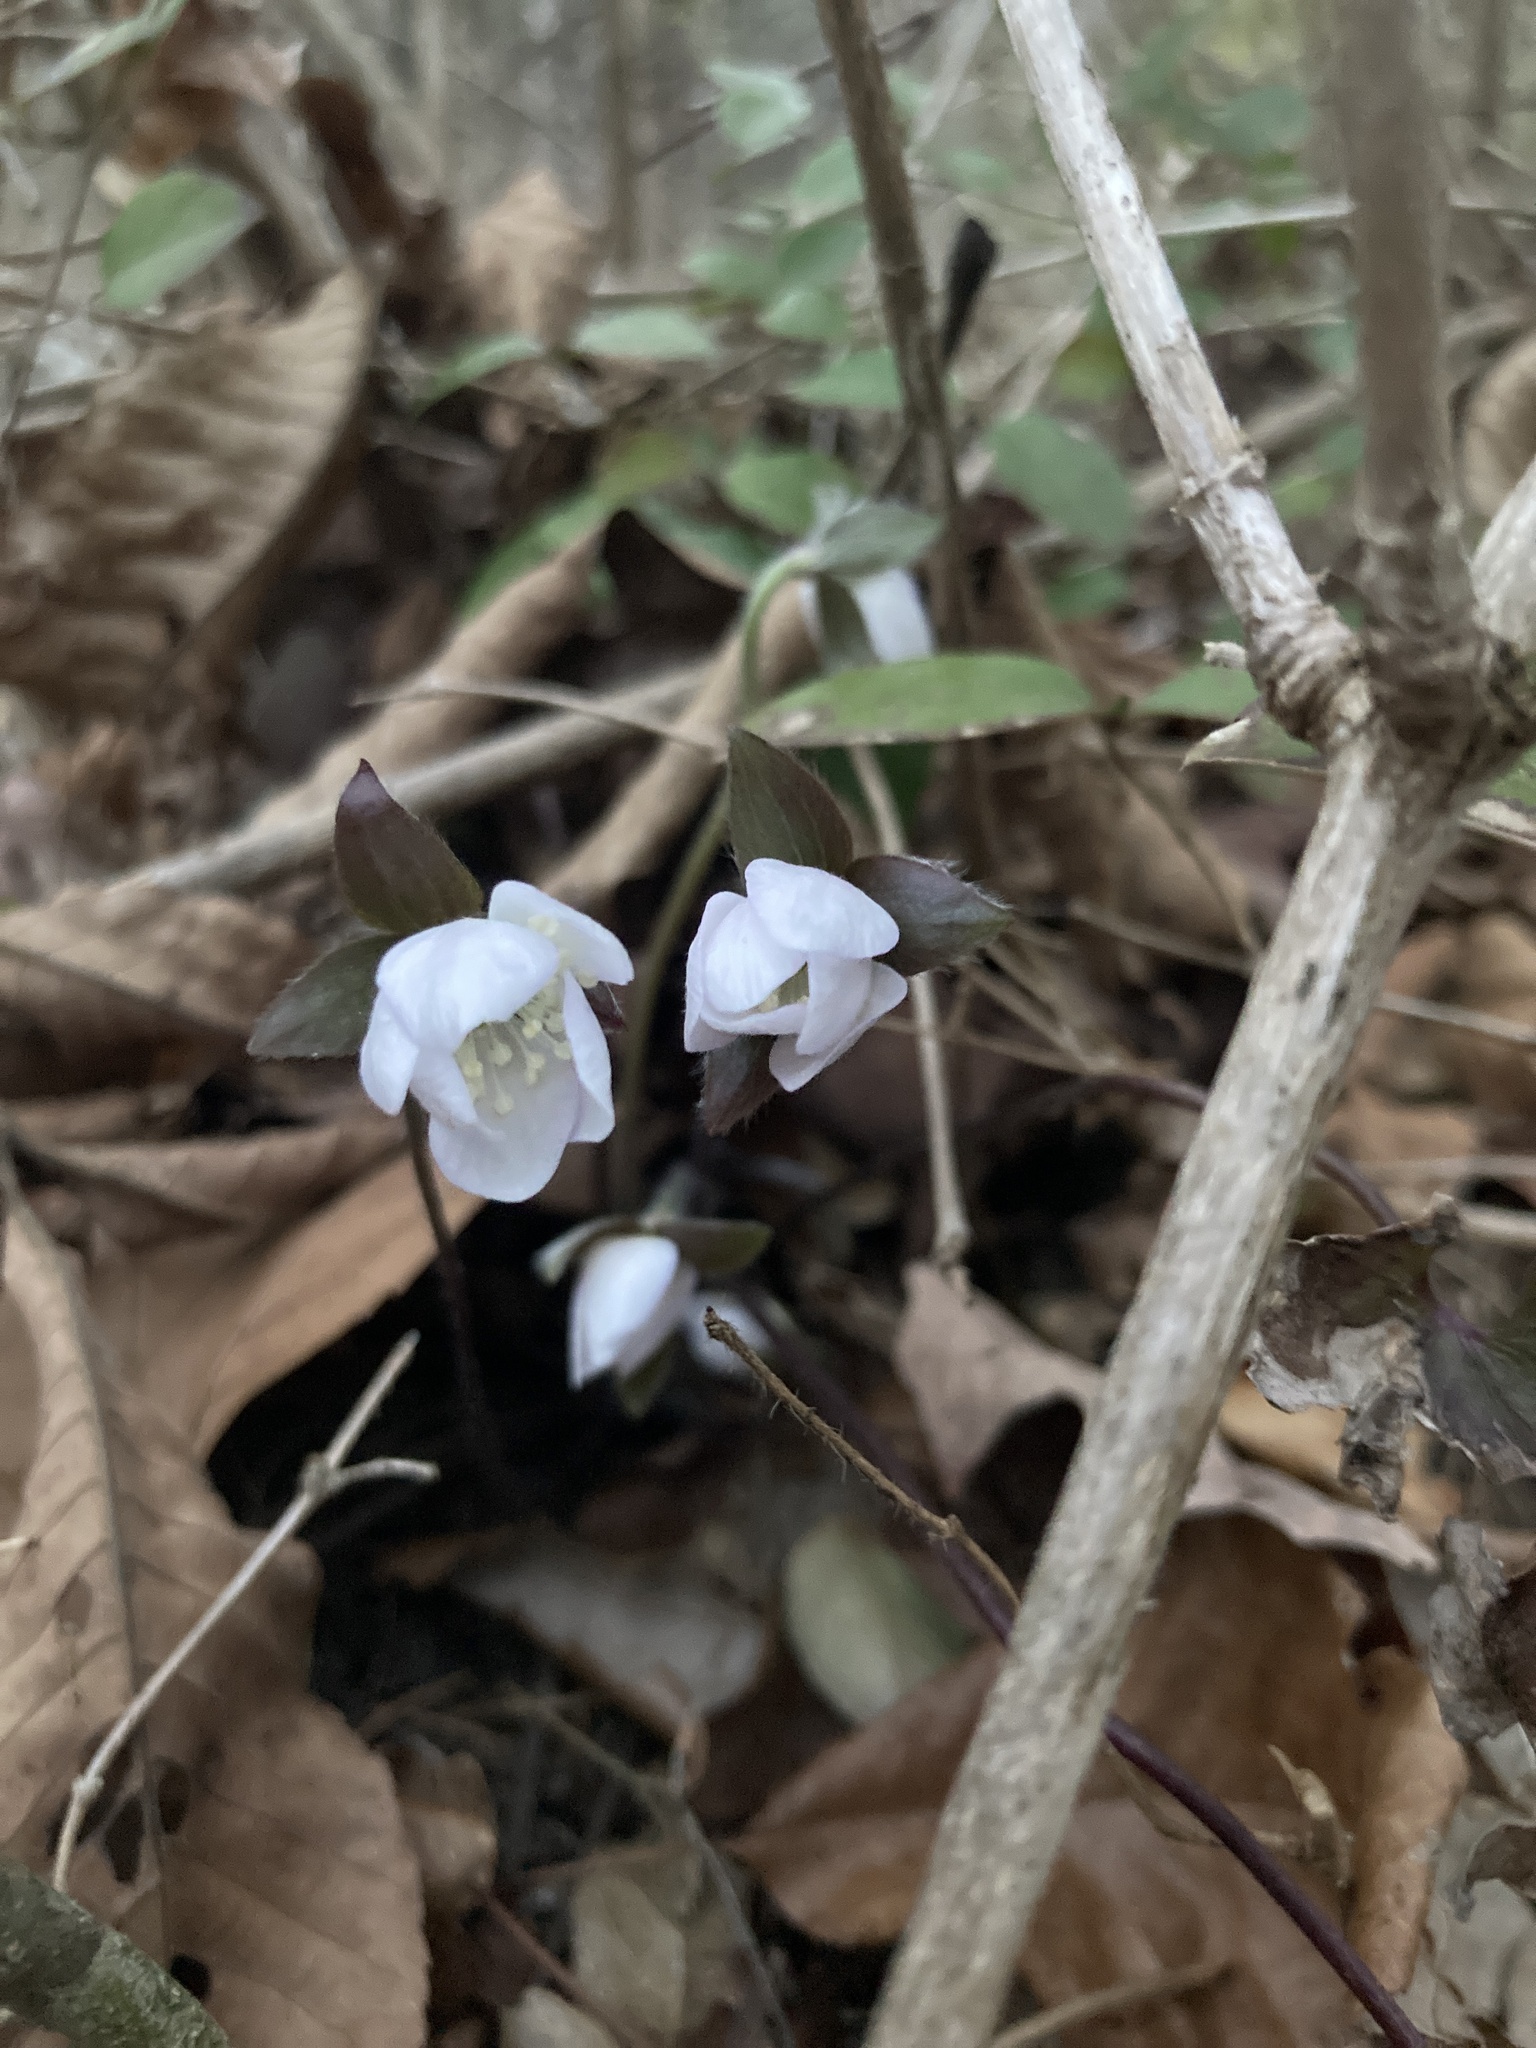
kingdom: Plantae
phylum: Tracheophyta
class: Magnoliopsida
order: Ranunculales
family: Ranunculaceae
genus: Hepatica
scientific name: Hepatica acutiloba
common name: Sharp-lobed hepatica
